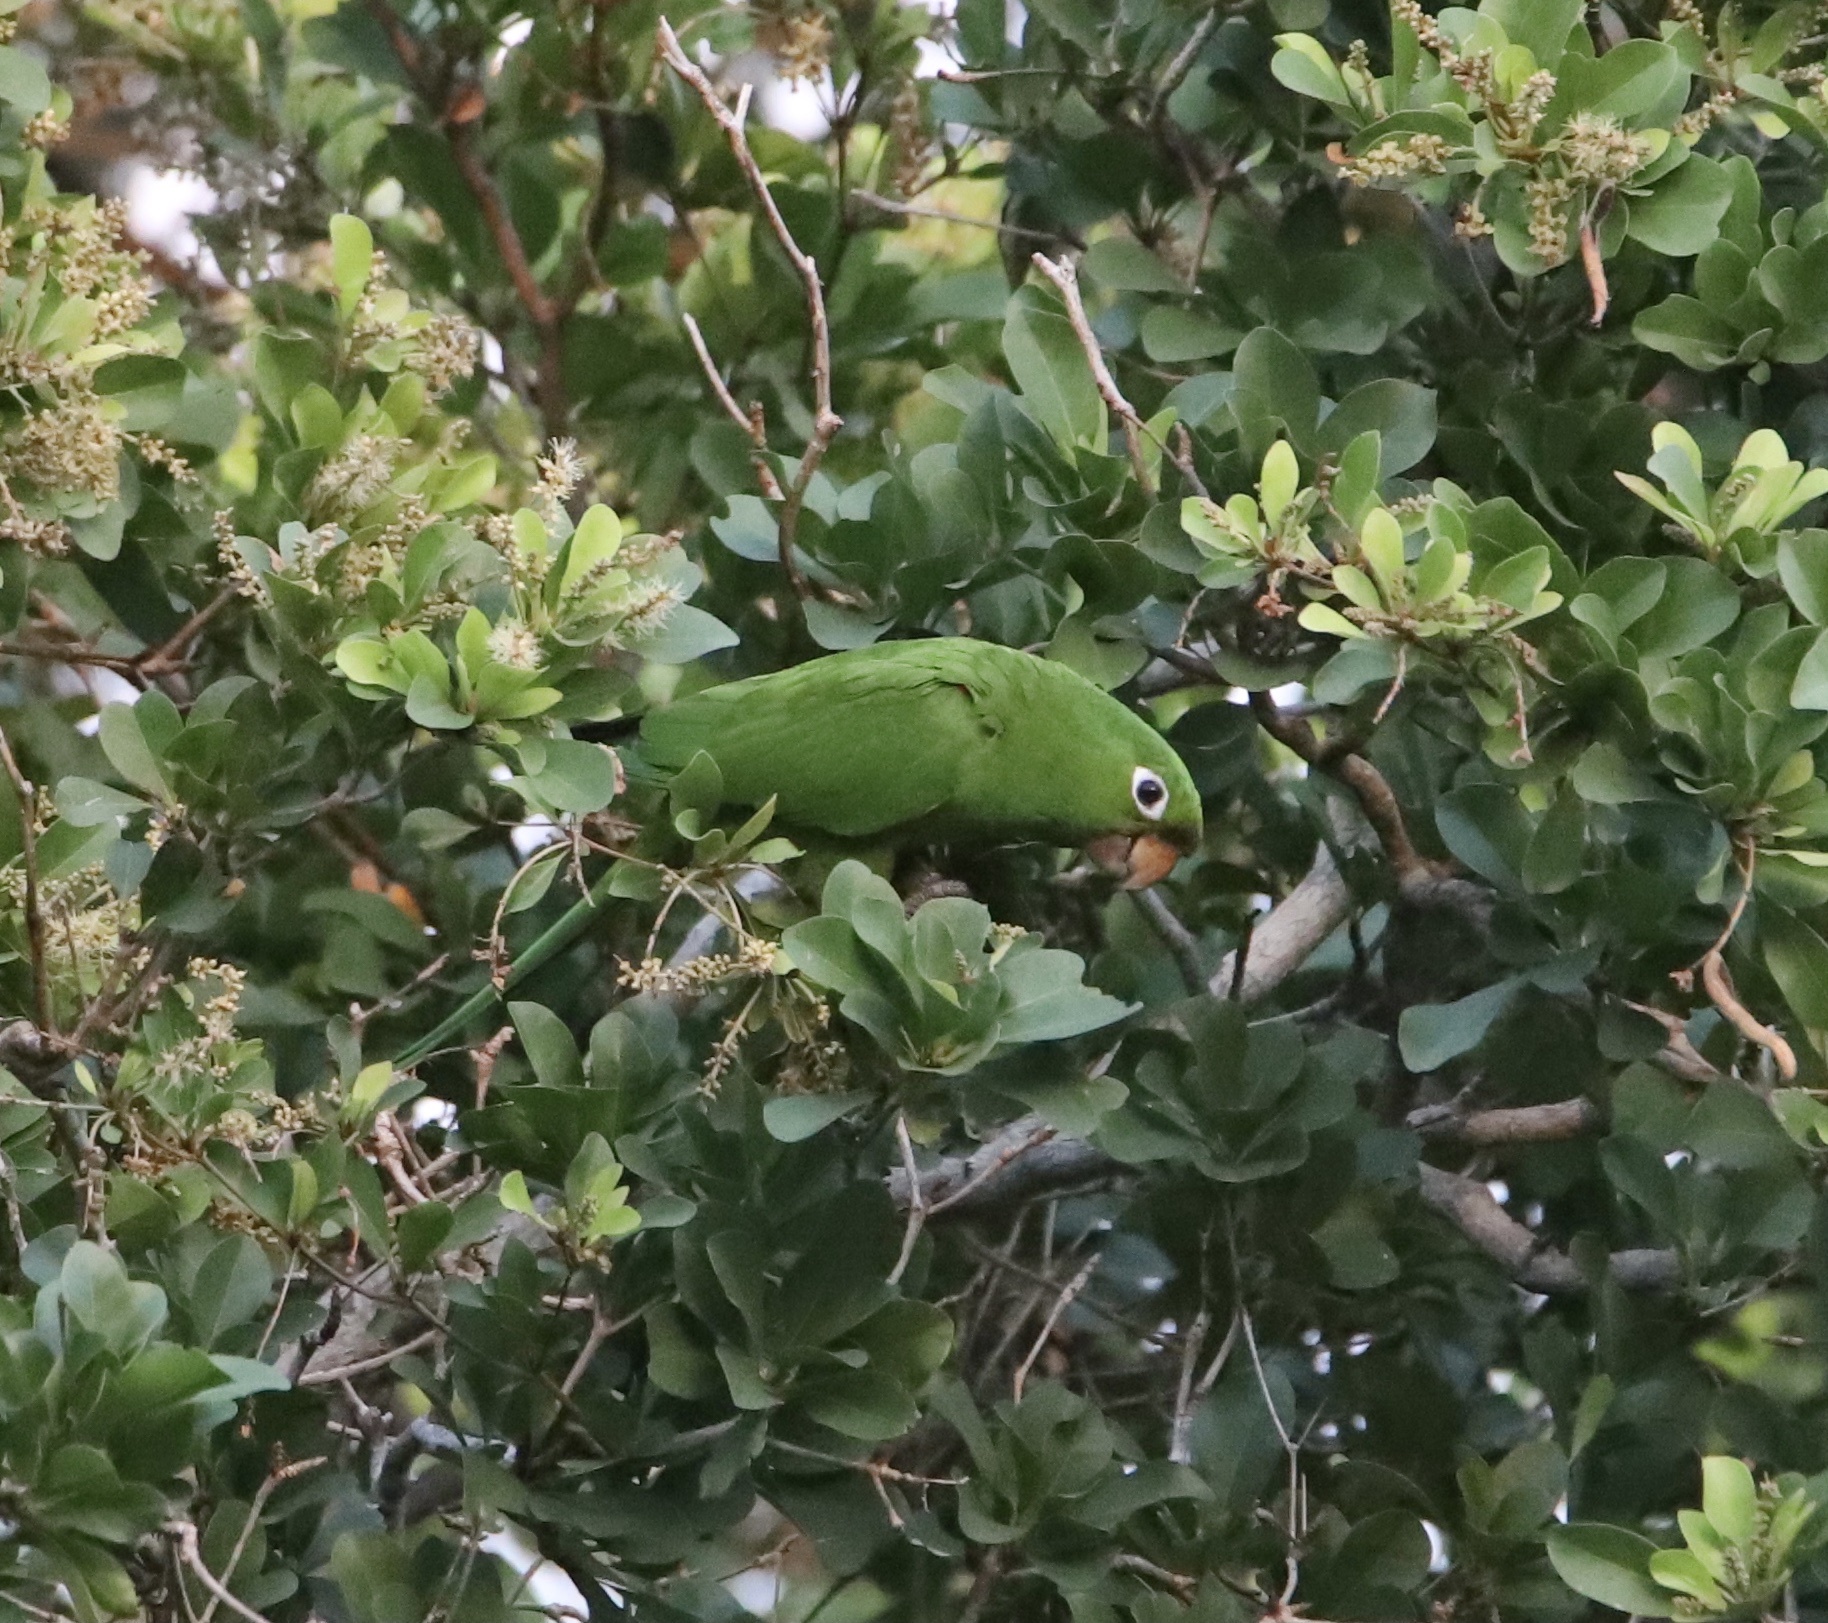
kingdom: Animalia
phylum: Chordata
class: Aves
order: Psittaciformes
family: Psittacidae
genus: Aratinga
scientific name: Aratinga chloroptera
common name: Hispaniolan parakeet
